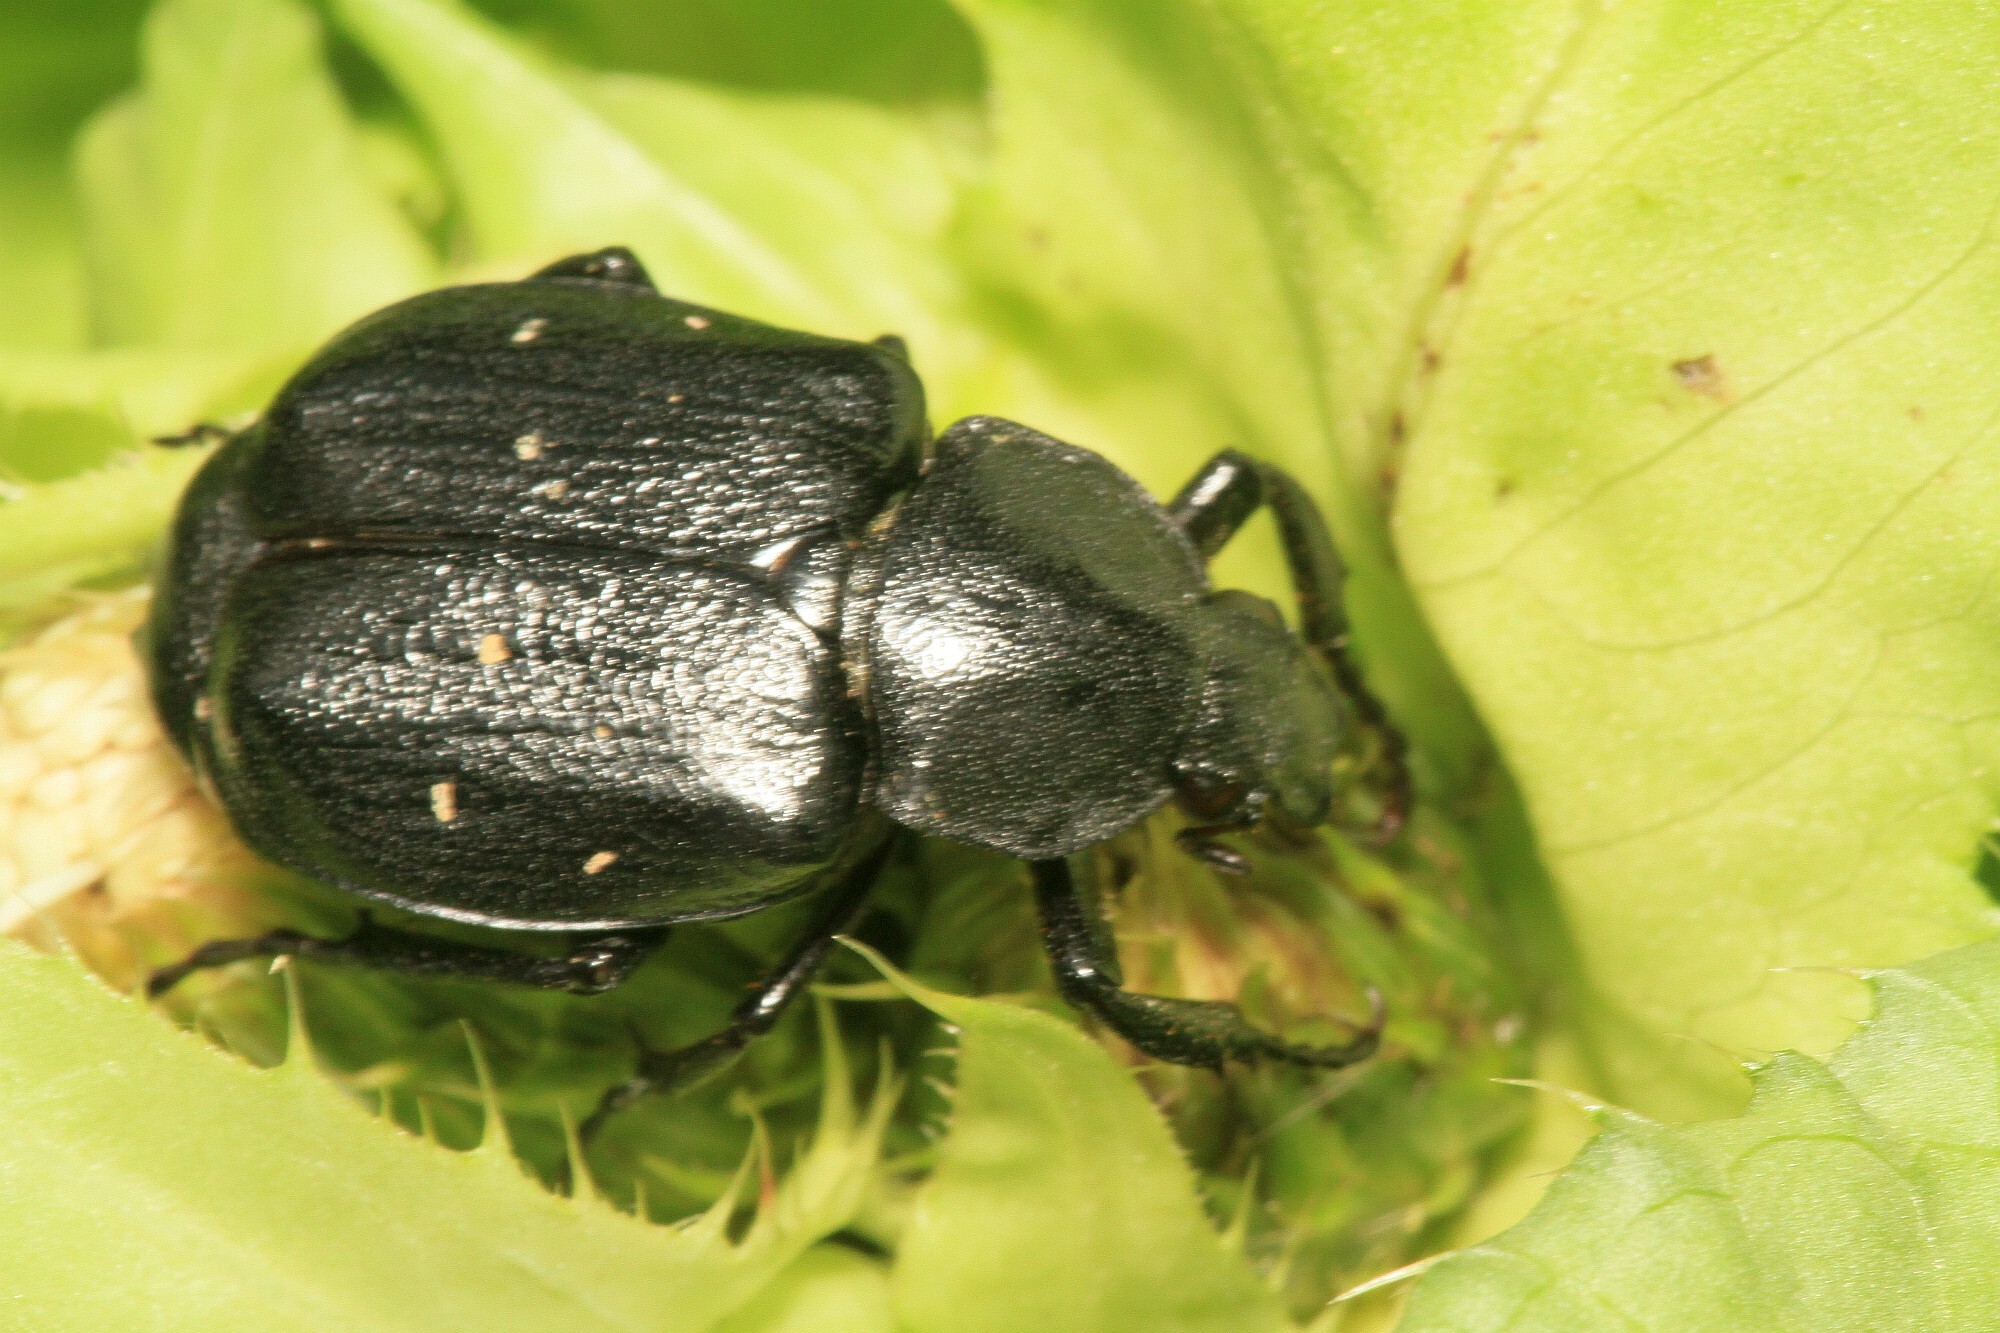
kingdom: Animalia
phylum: Arthropoda
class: Insecta
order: Coleoptera
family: Scarabaeidae
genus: Gnorimus
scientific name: Gnorimus variabilis
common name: Variable chafer
